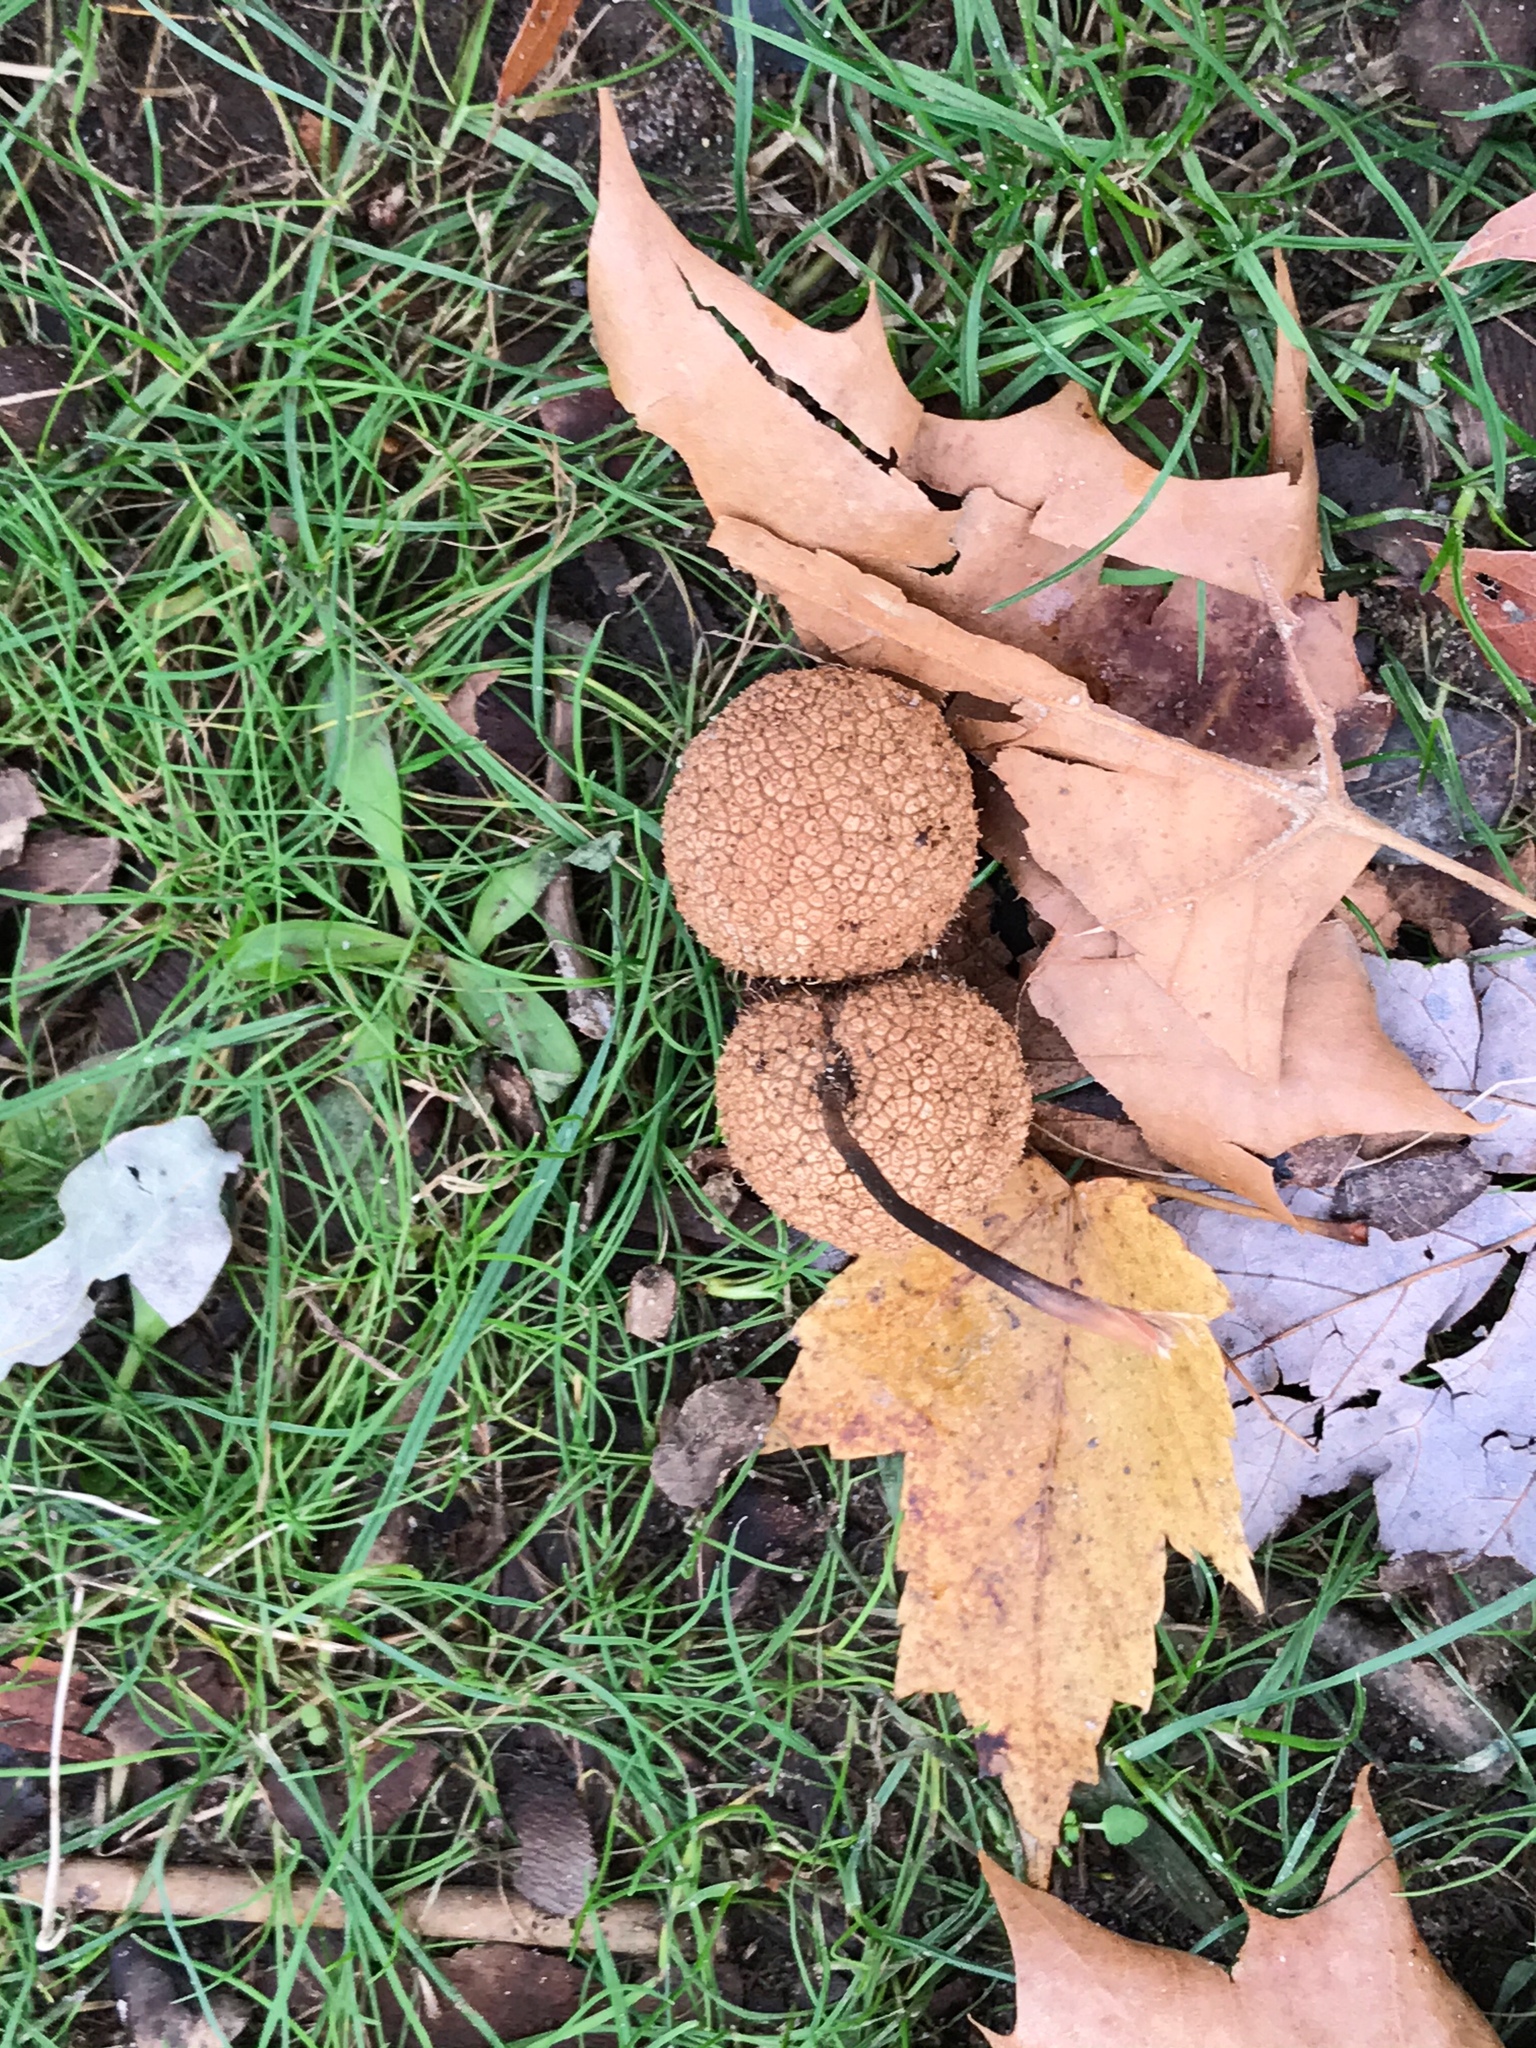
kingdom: Plantae
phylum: Tracheophyta
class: Magnoliopsida
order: Proteales
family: Platanaceae
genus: Platanus
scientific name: Platanus occidentalis
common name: American sycamore
